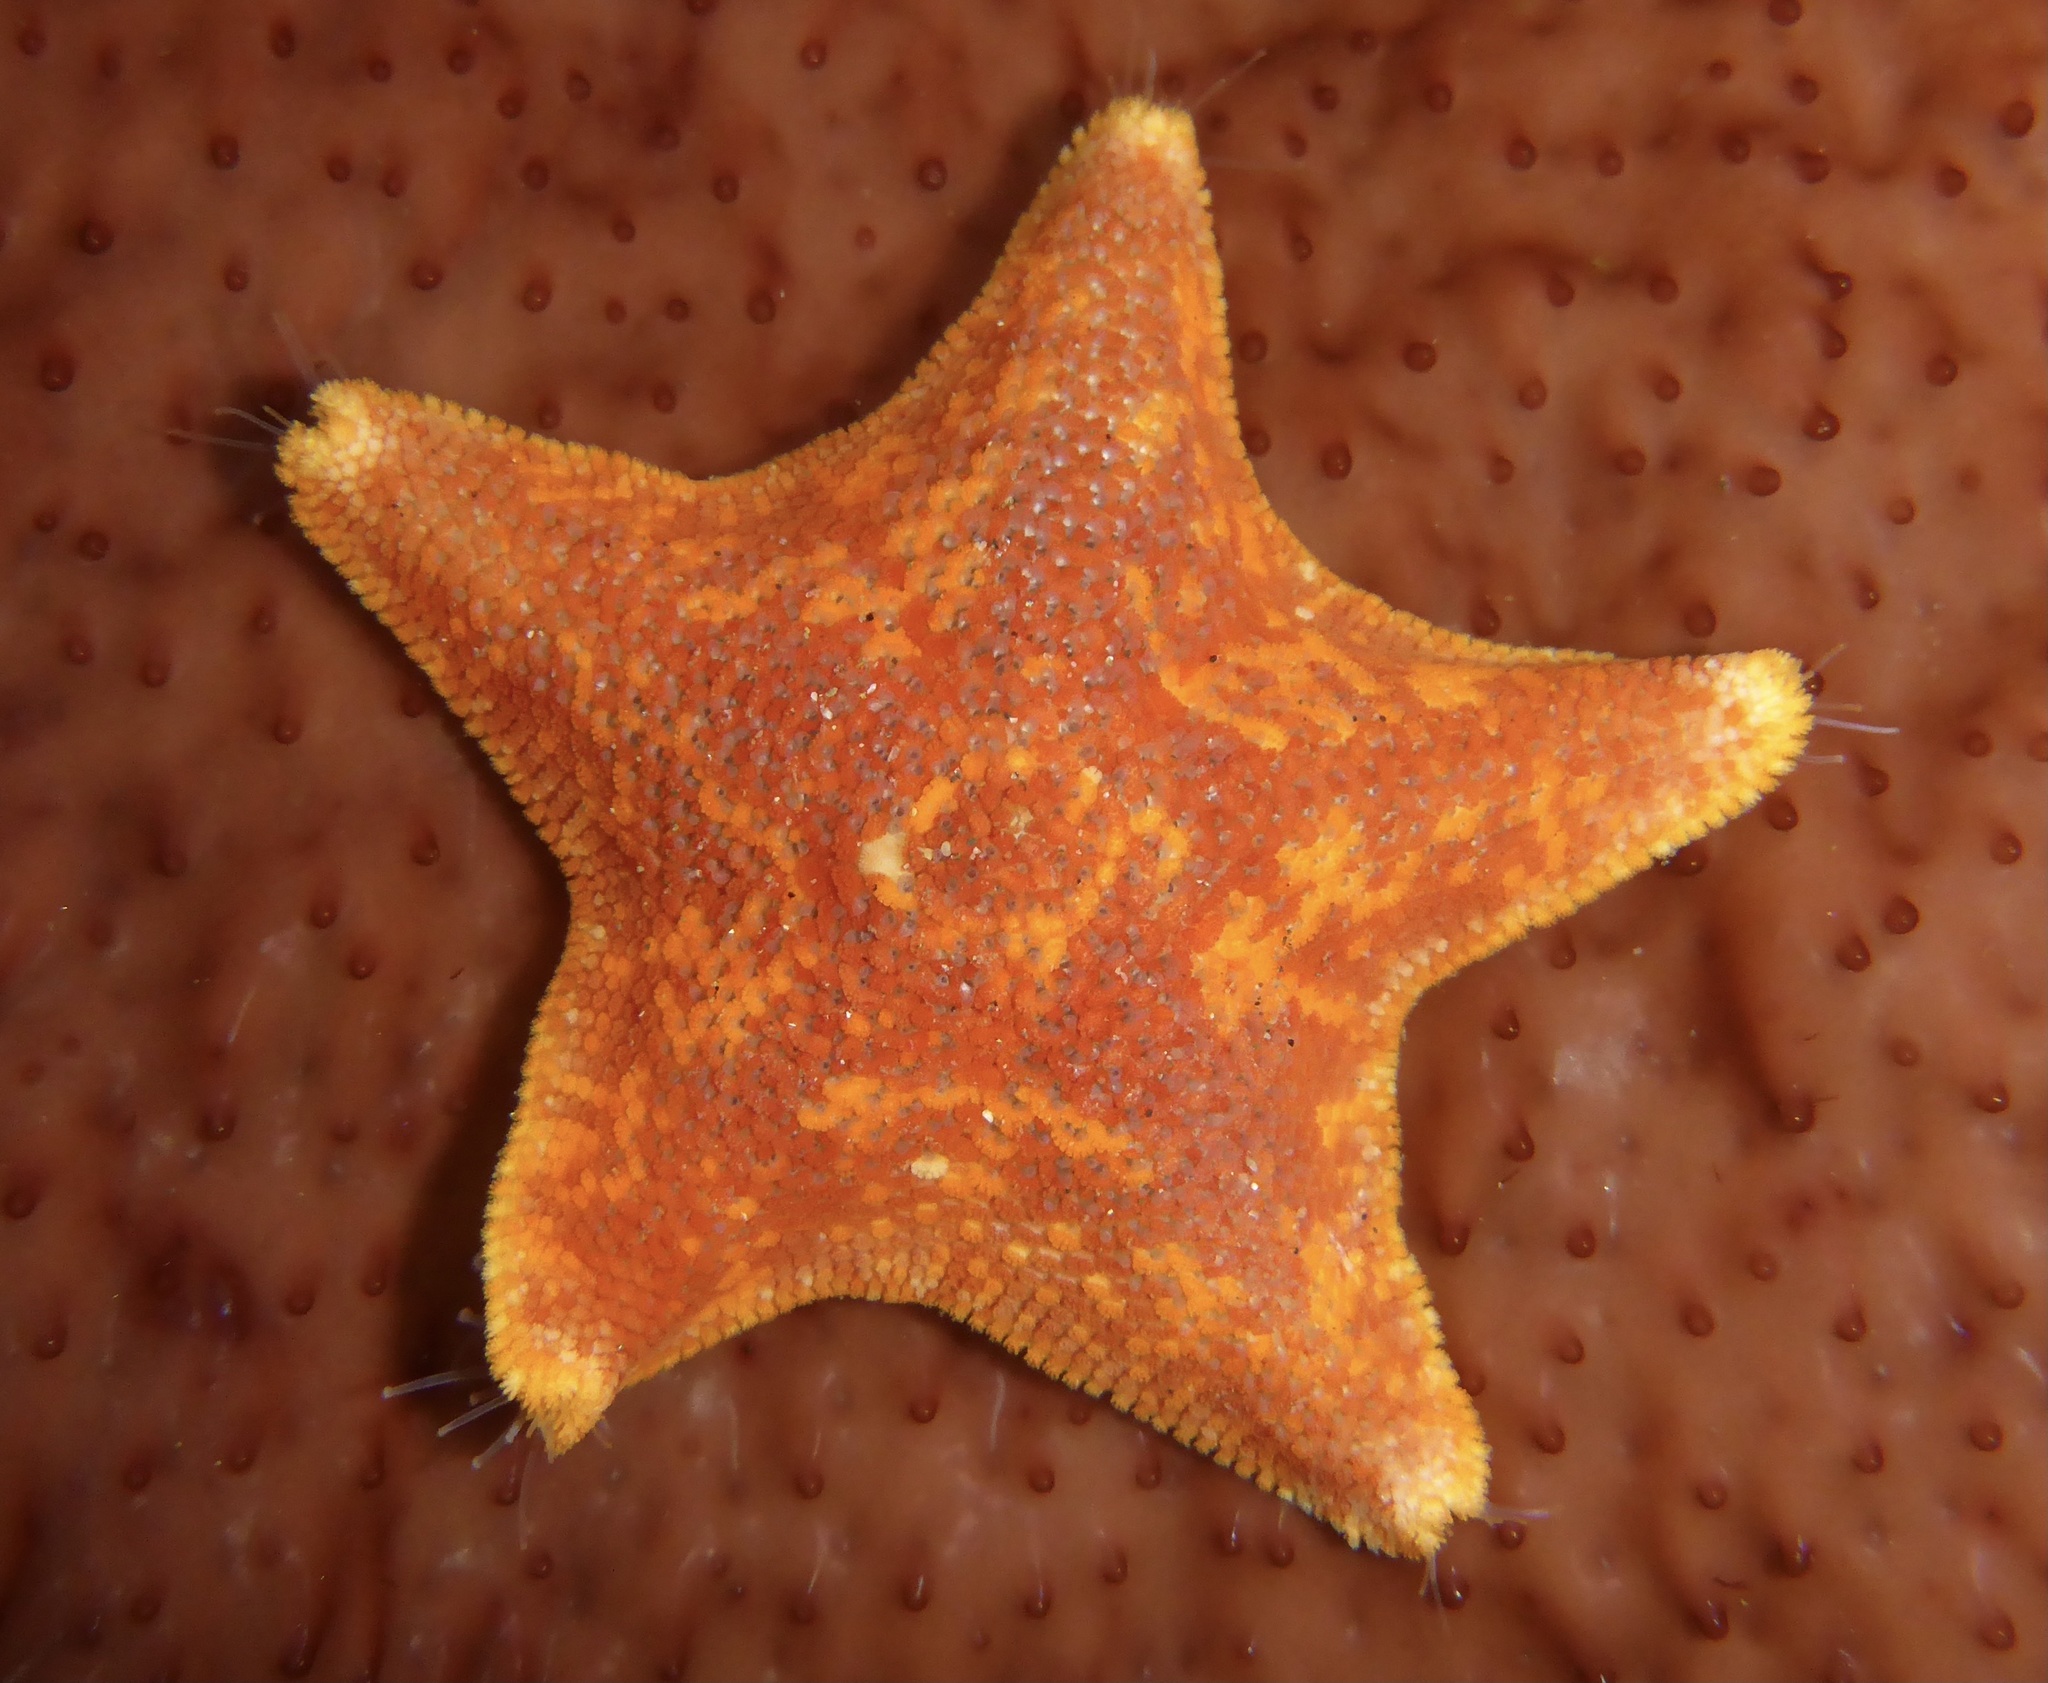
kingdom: Animalia
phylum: Echinodermata
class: Asteroidea
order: Valvatida
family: Asterinidae
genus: Patiria
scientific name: Patiria miniata
